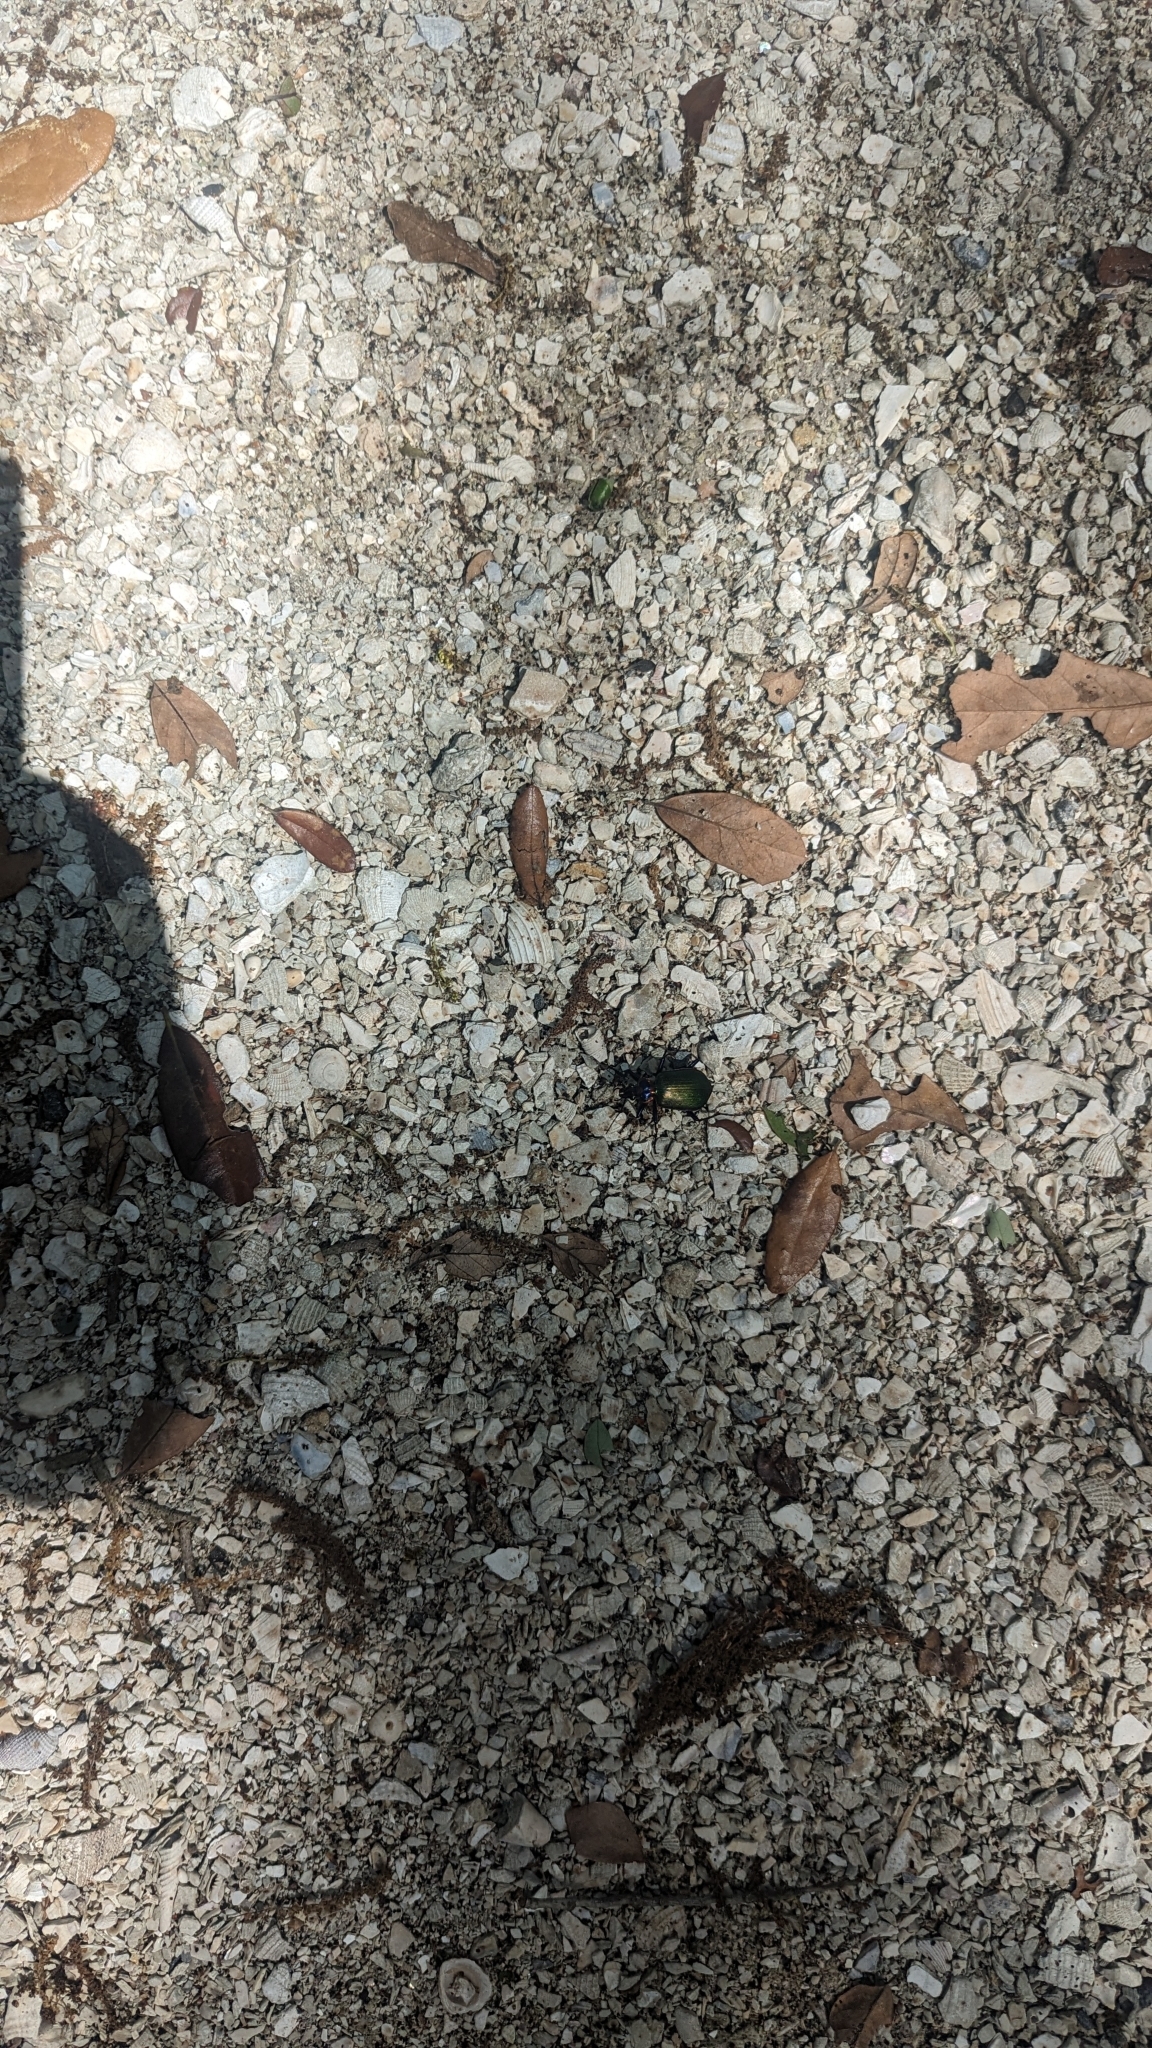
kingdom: Animalia
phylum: Arthropoda
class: Insecta
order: Coleoptera
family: Carabidae
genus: Calosoma
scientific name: Calosoma scrutator
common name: Fiery searcher beetle
